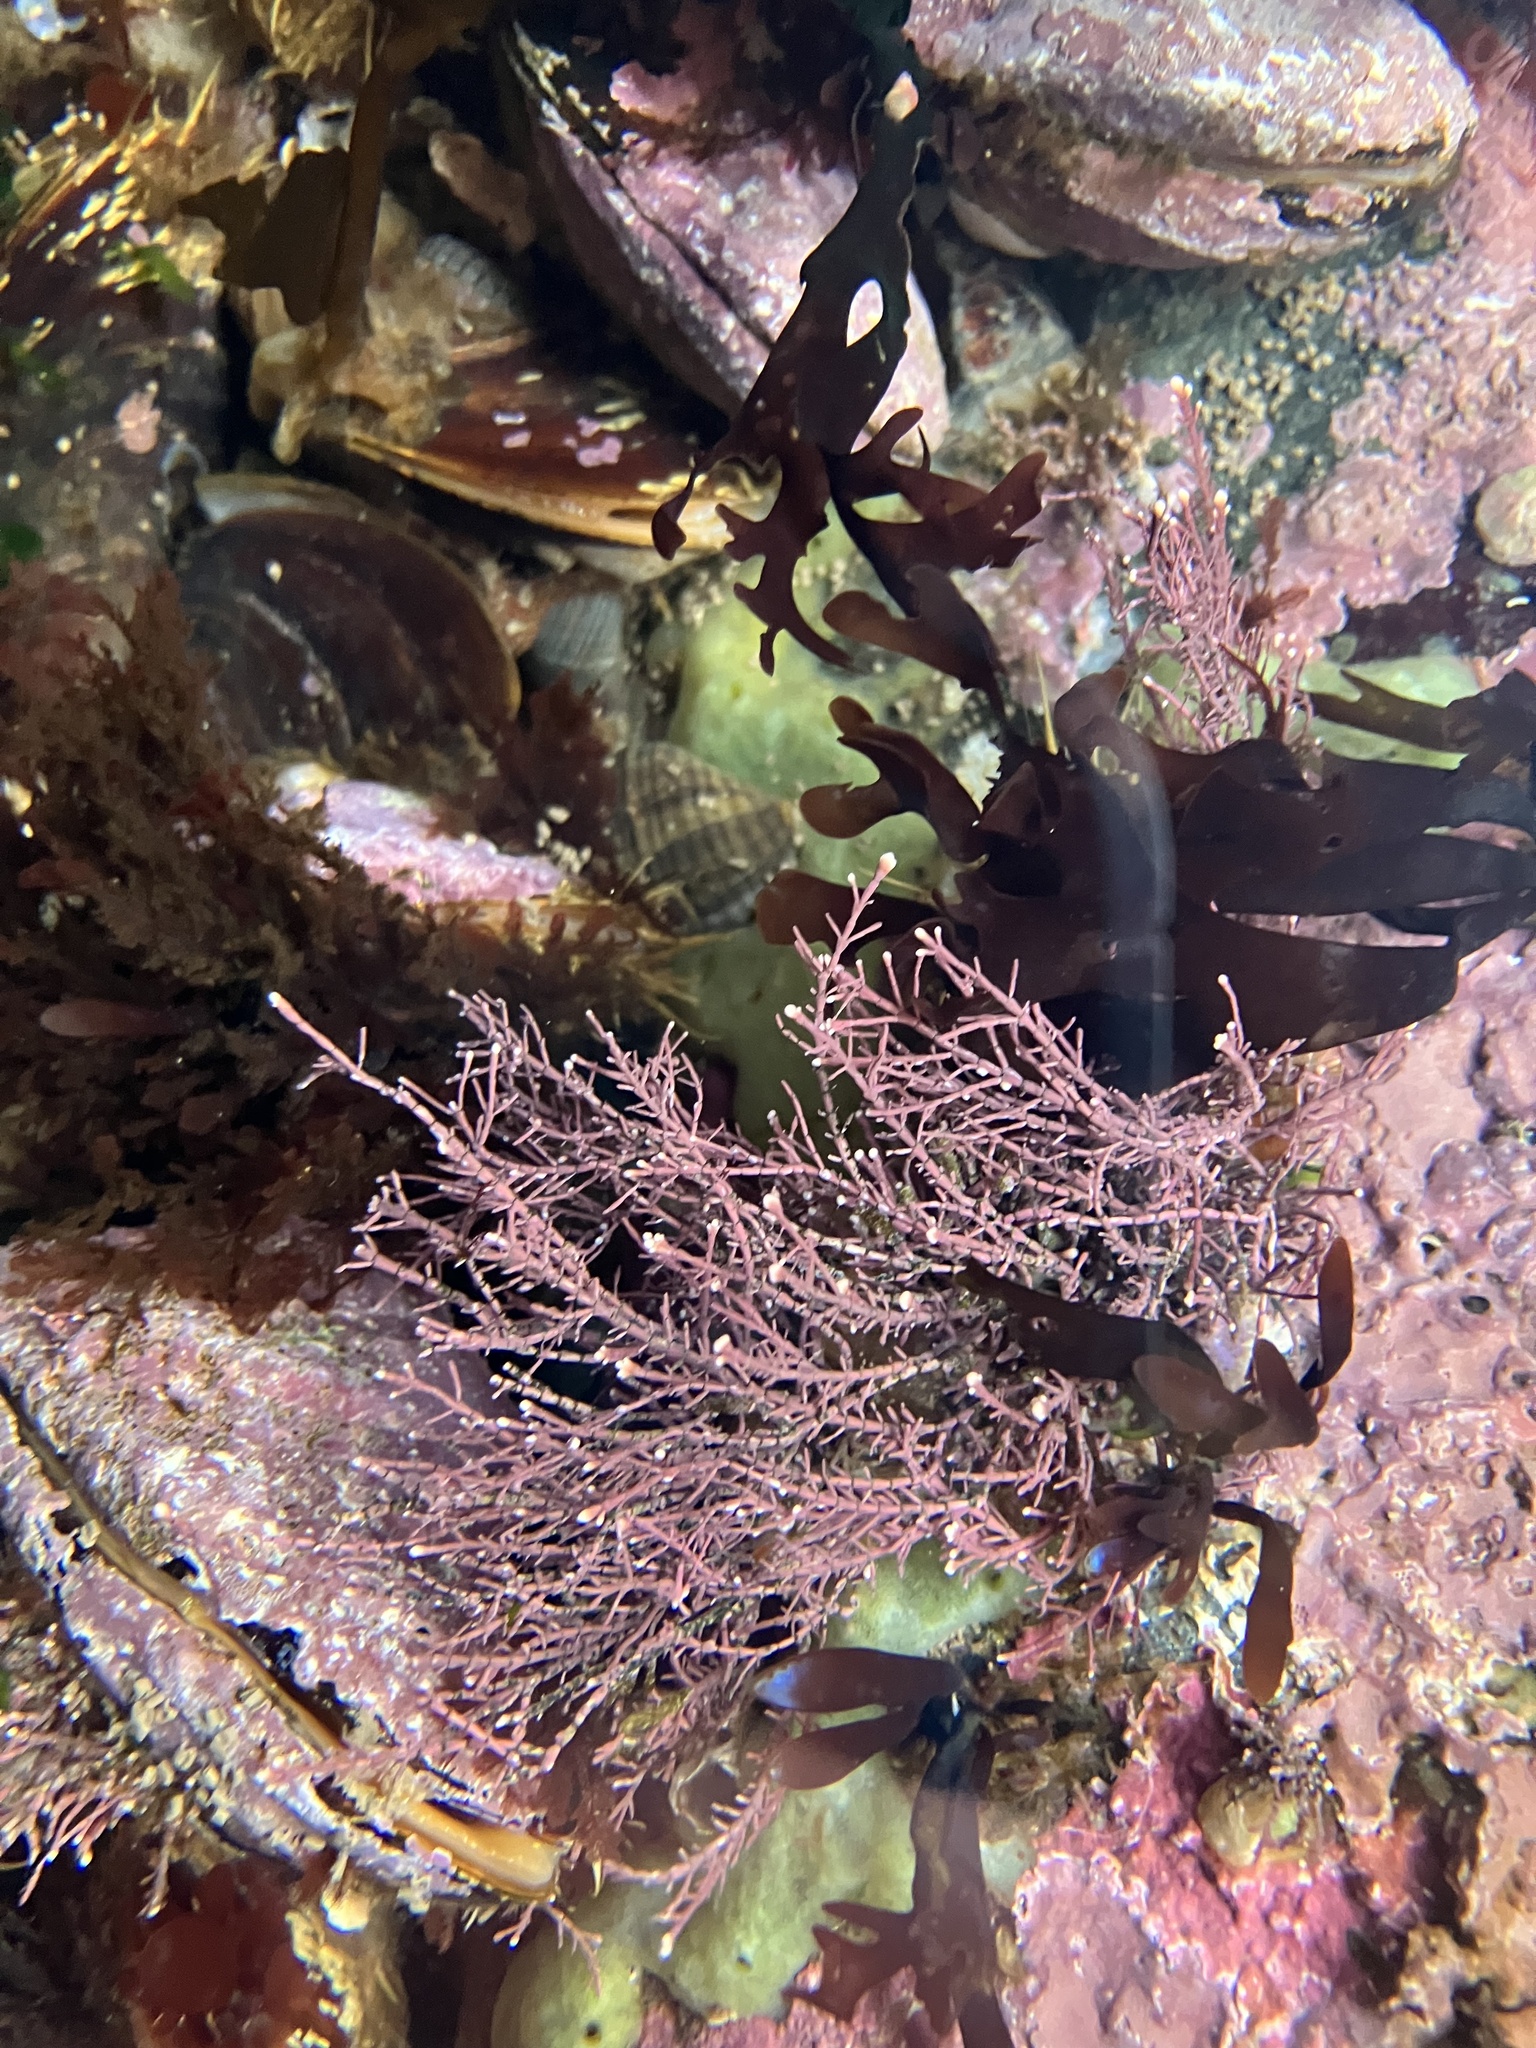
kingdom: Plantae
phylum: Rhodophyta
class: Florideophyceae
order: Corallinales
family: Corallinaceae
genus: Corallina
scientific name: Corallina officinalis
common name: Coral weed
